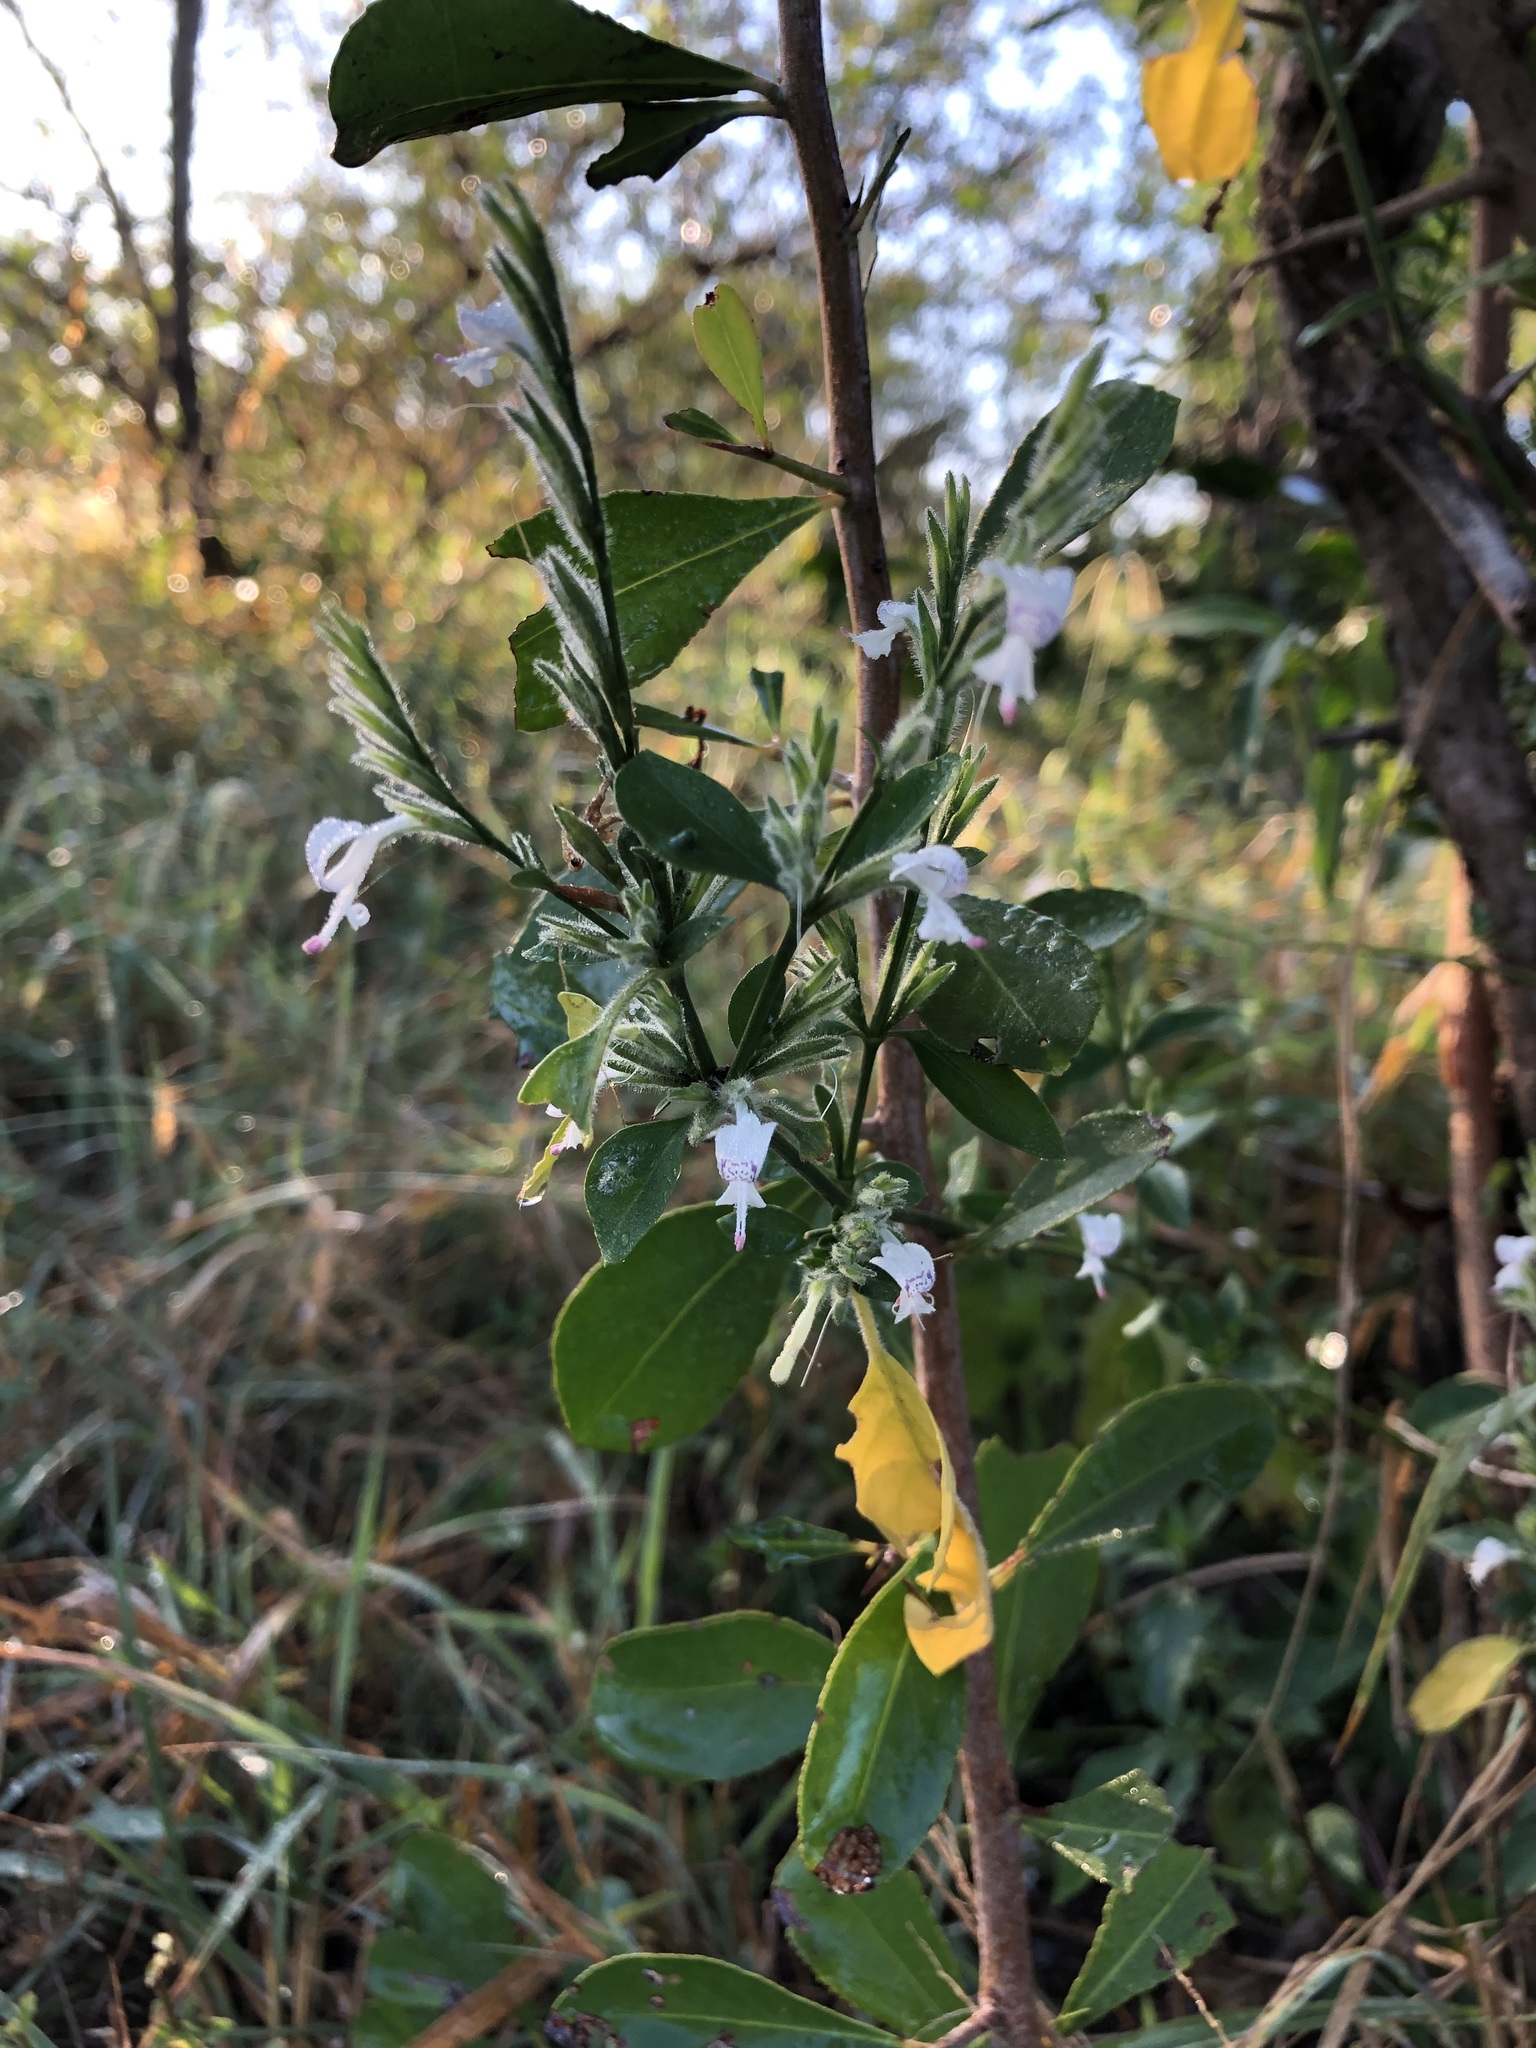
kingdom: Plantae
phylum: Tracheophyta
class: Magnoliopsida
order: Lamiales
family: Acanthaceae
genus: Hypoestes
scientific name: Hypoestes forskaolii
